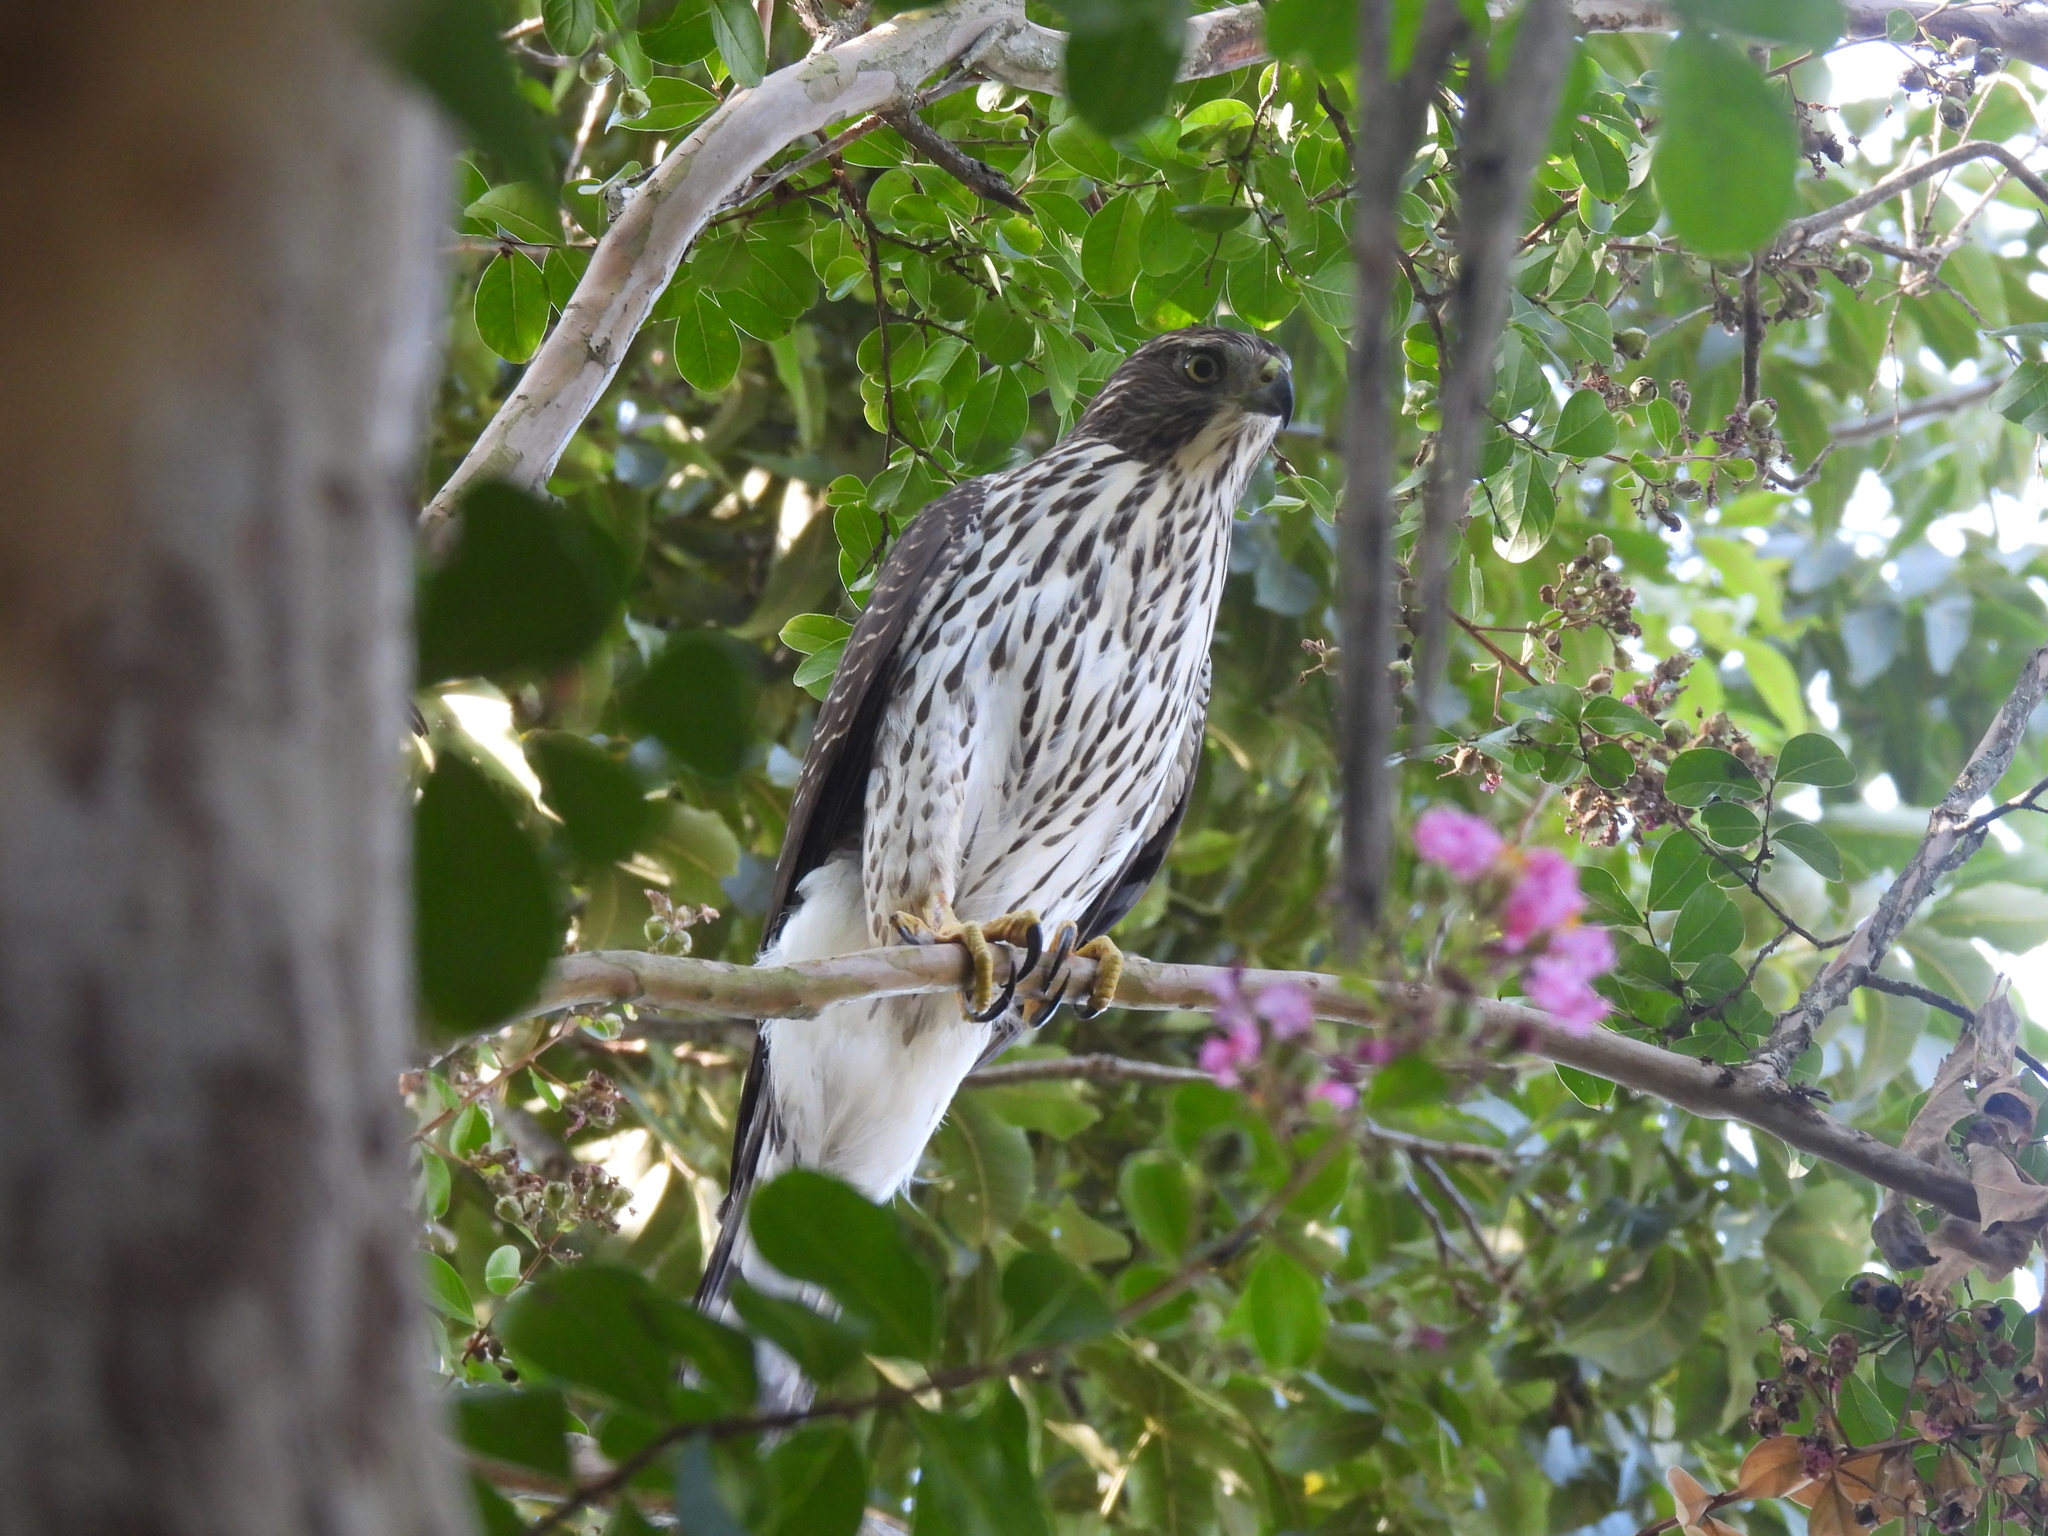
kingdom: Animalia
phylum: Chordata
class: Aves
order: Accipitriformes
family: Accipitridae
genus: Accipiter
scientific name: Accipiter cooperii
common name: Cooper's hawk
